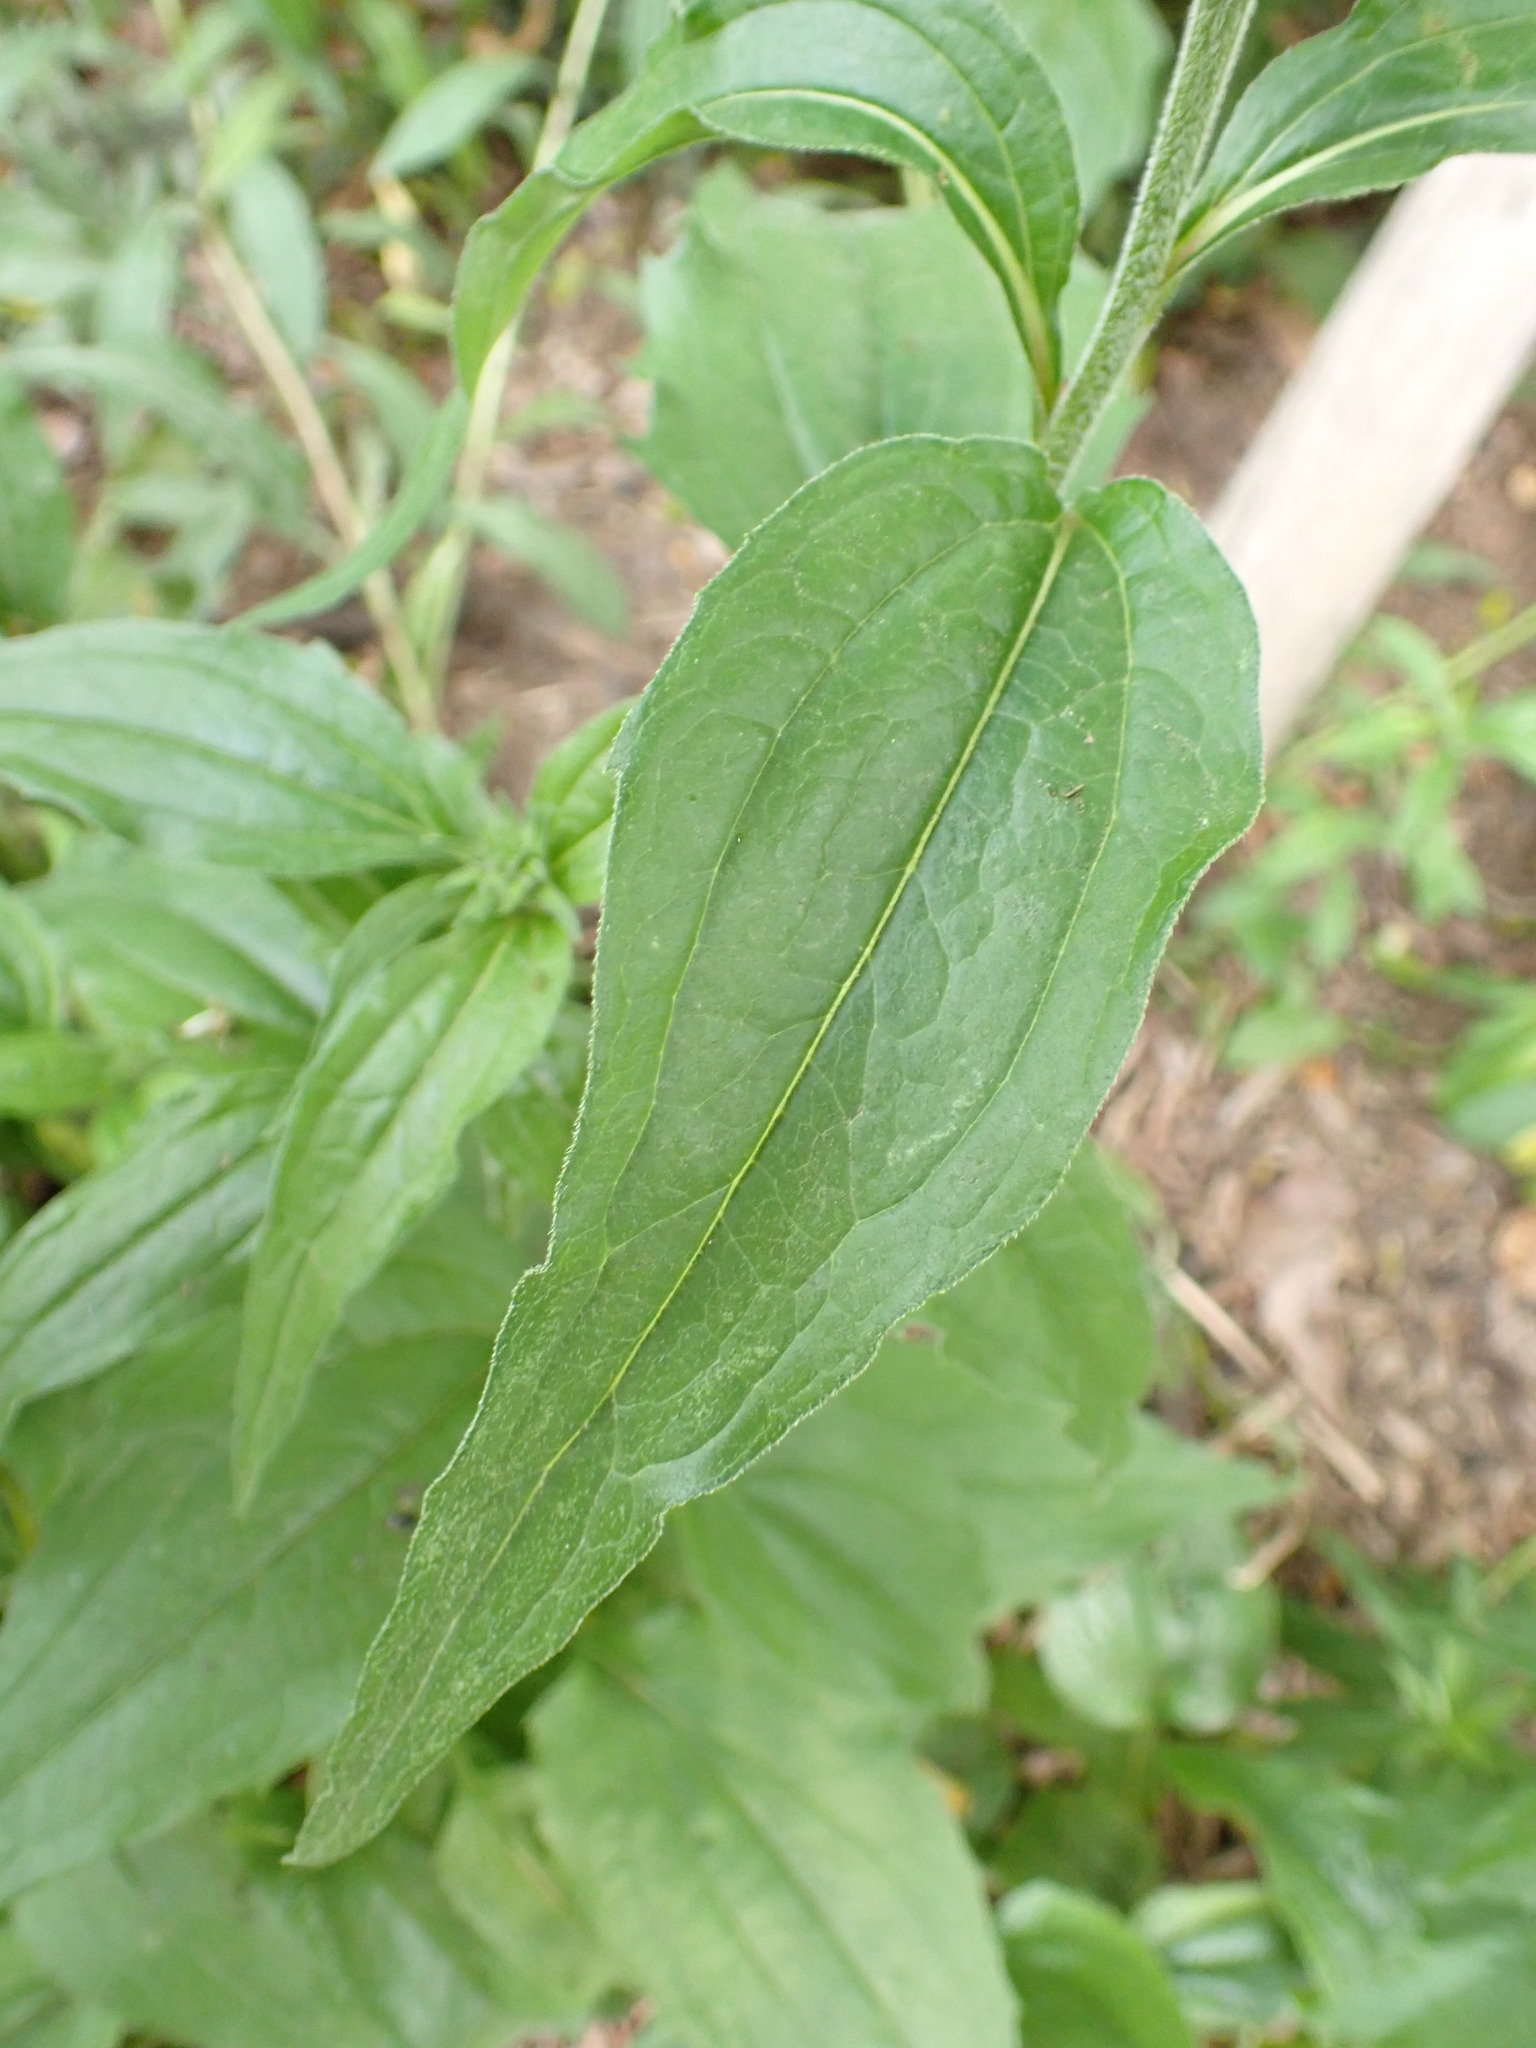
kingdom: Plantae
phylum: Tracheophyta
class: Magnoliopsida
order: Asterales
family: Asteraceae
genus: Echinacea
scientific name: Echinacea purpurea
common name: Broad-leaved purple coneflower
